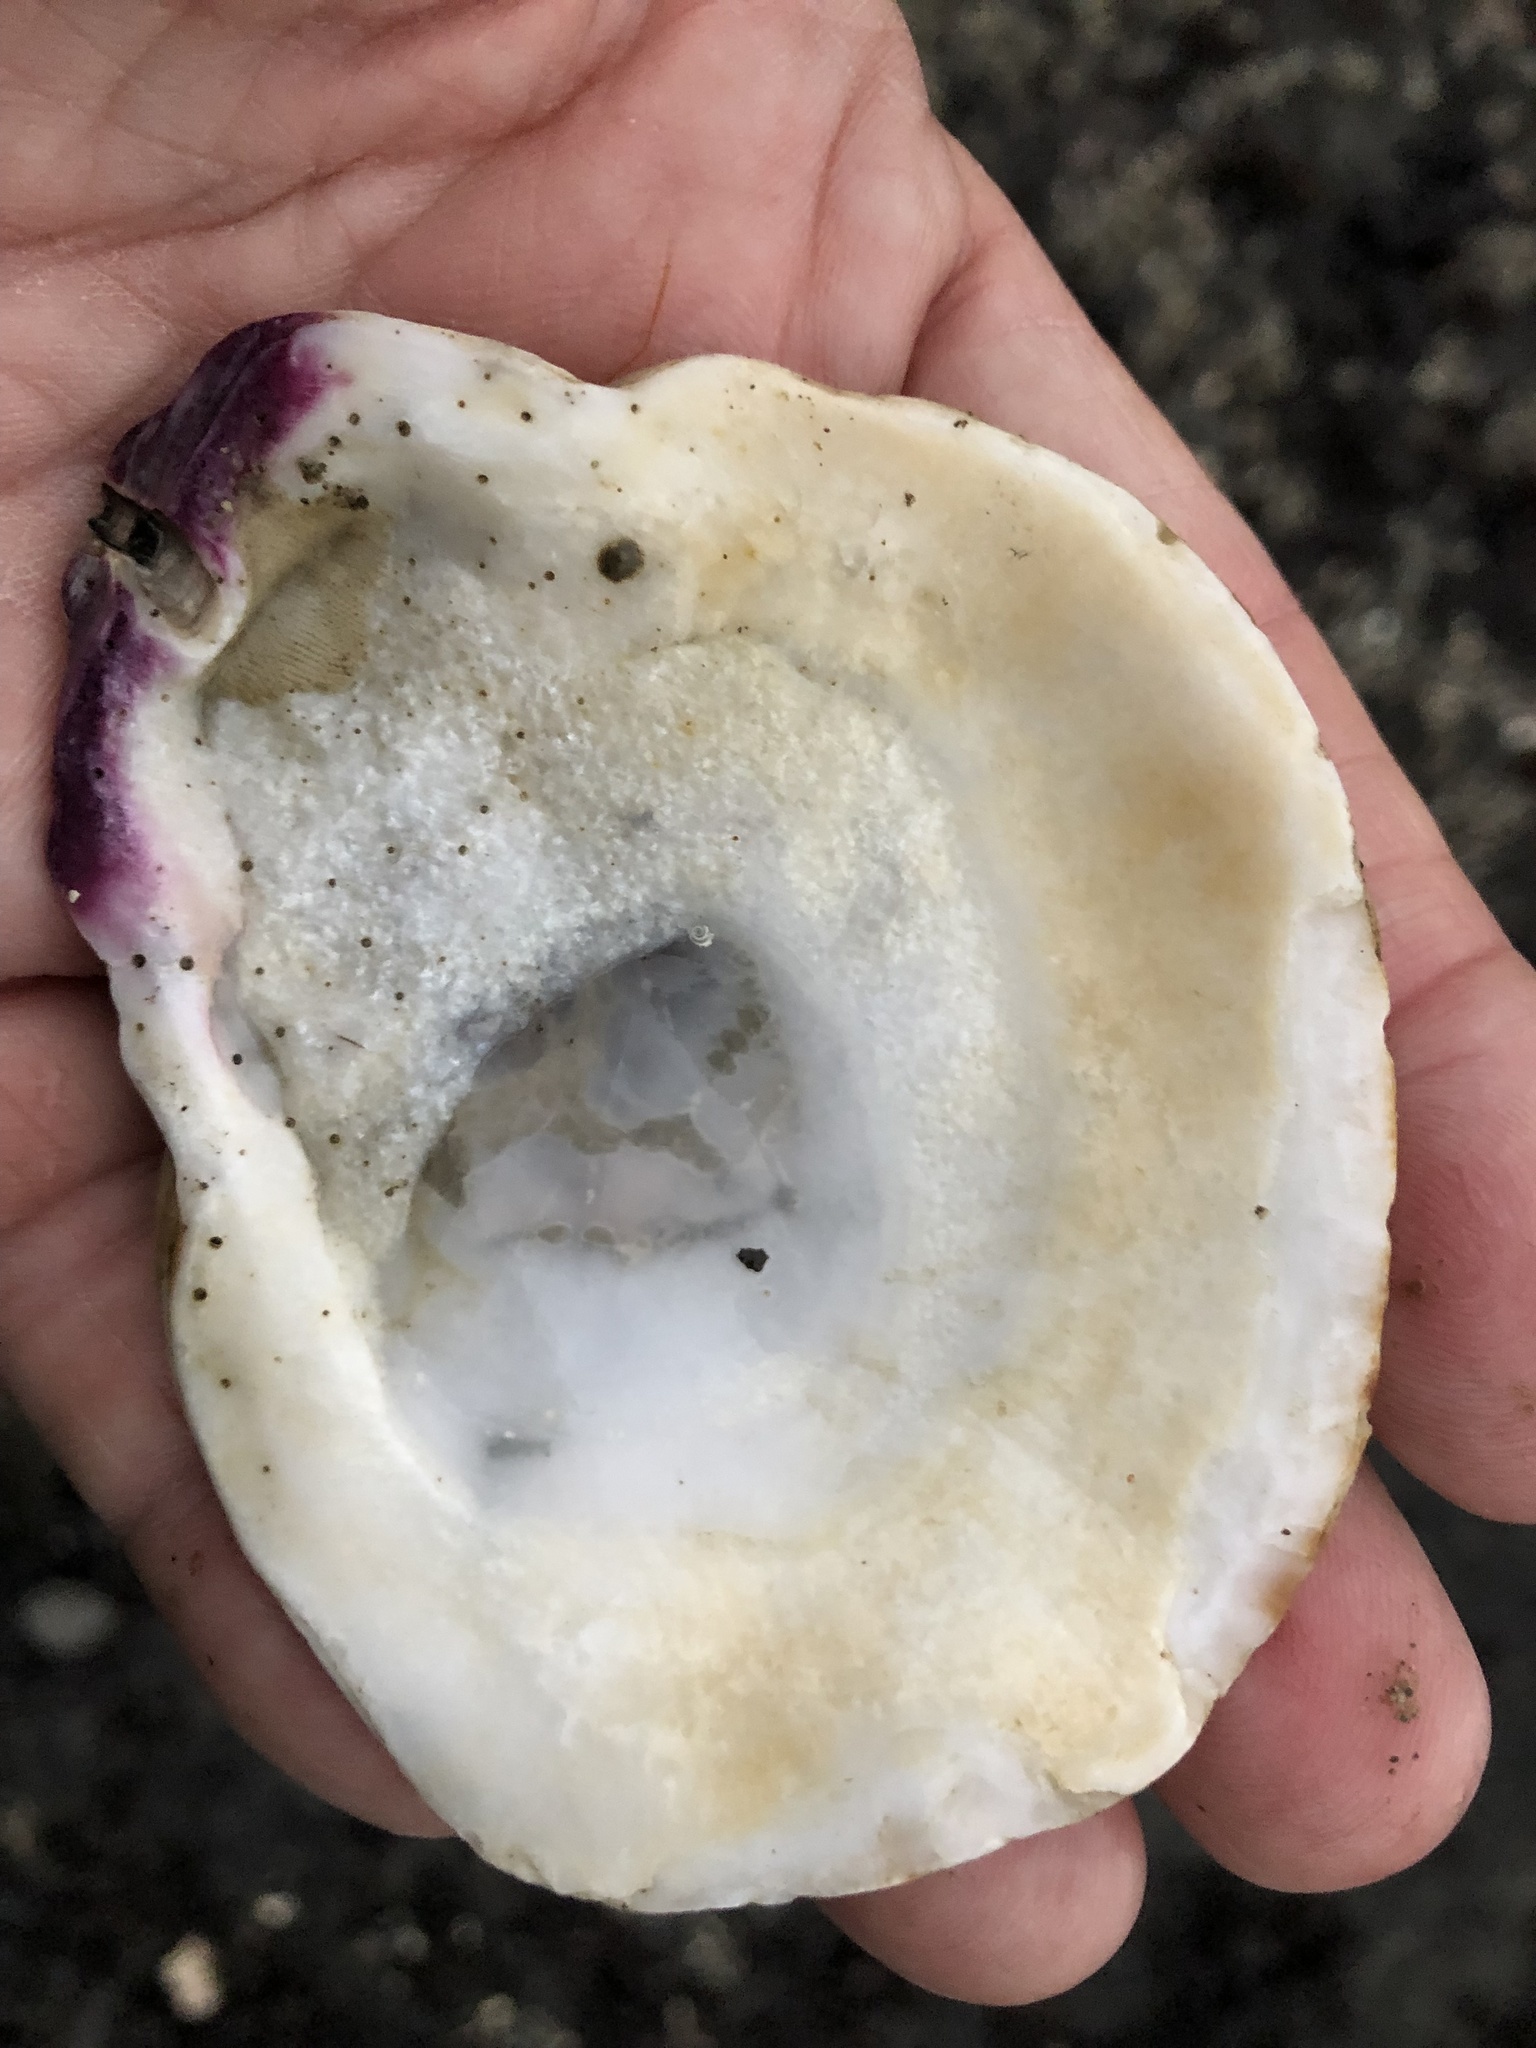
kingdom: Animalia
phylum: Mollusca
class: Bivalvia
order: Pectinida
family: Pectinidae
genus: Crassadoma
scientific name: Crassadoma gigantea
